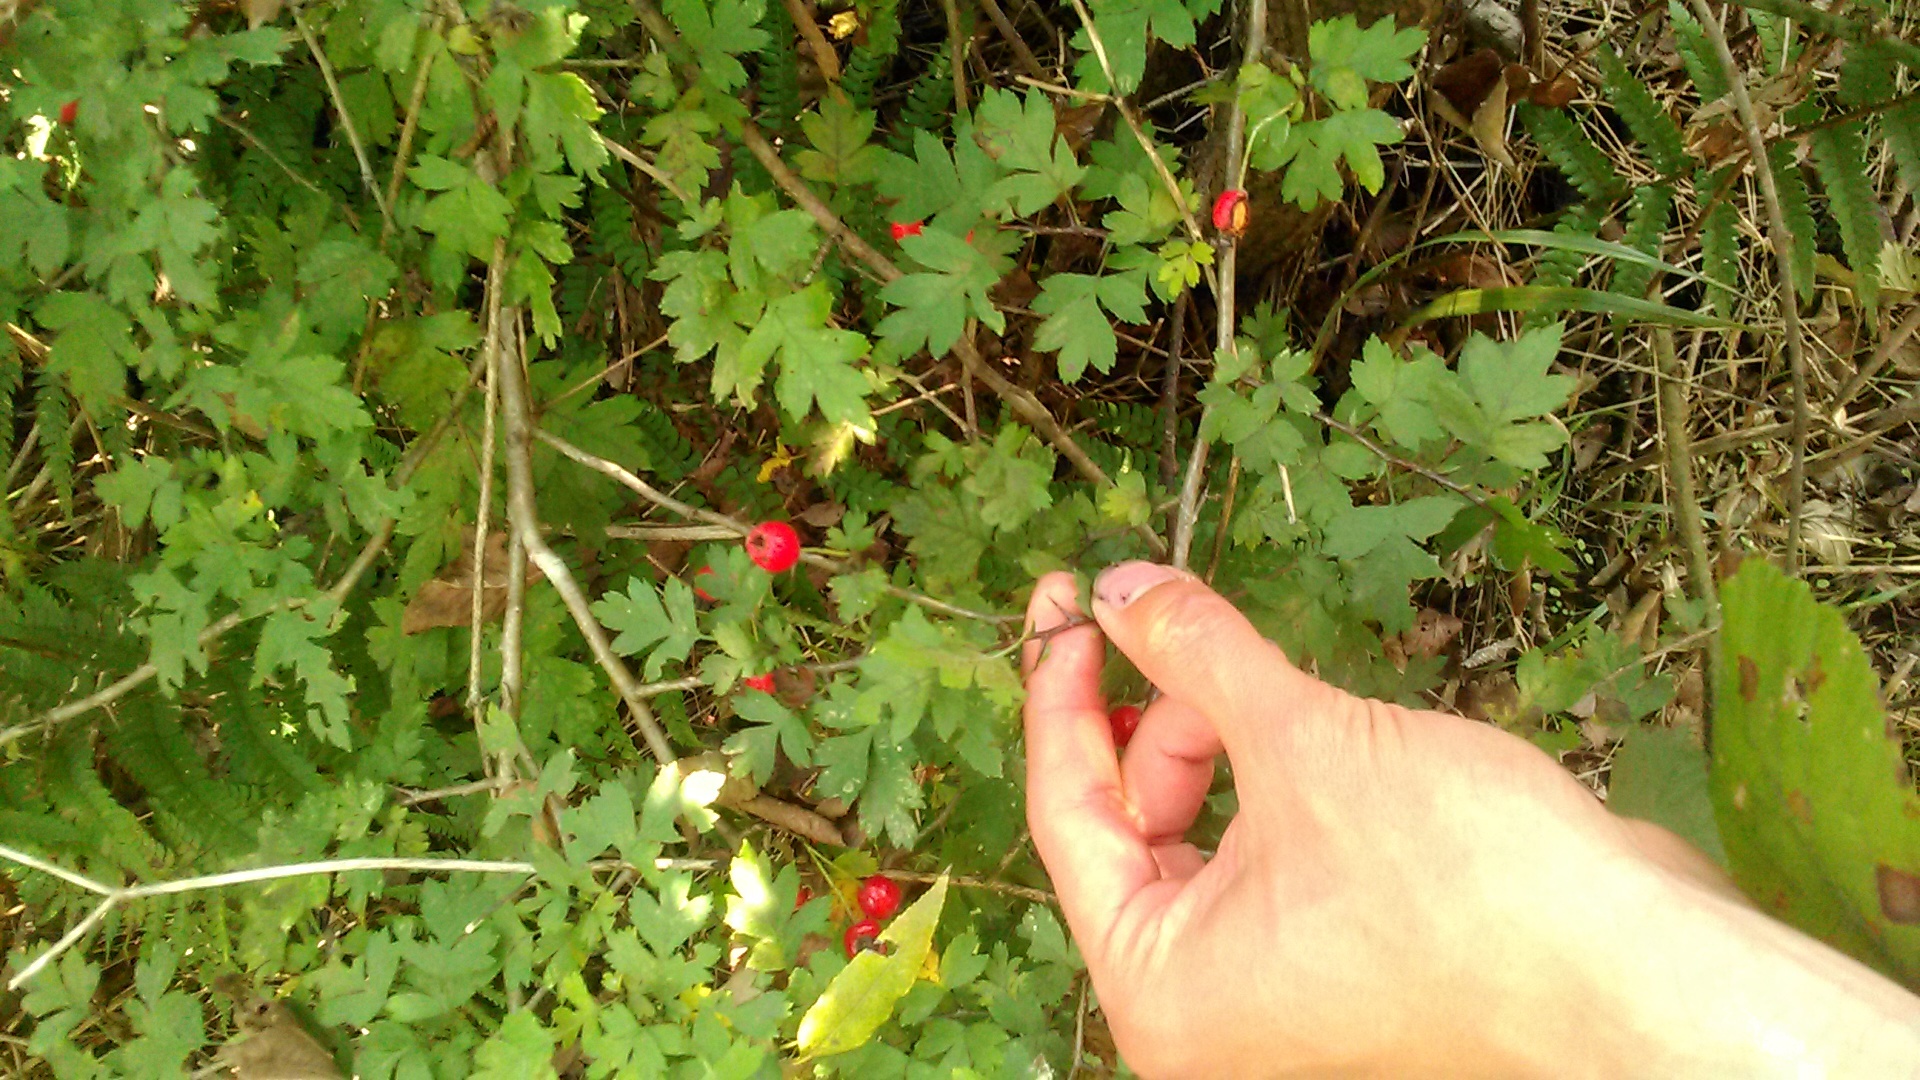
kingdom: Plantae
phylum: Tracheophyta
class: Magnoliopsida
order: Rosales
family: Rosaceae
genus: Crataegus
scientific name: Crataegus microphylla
